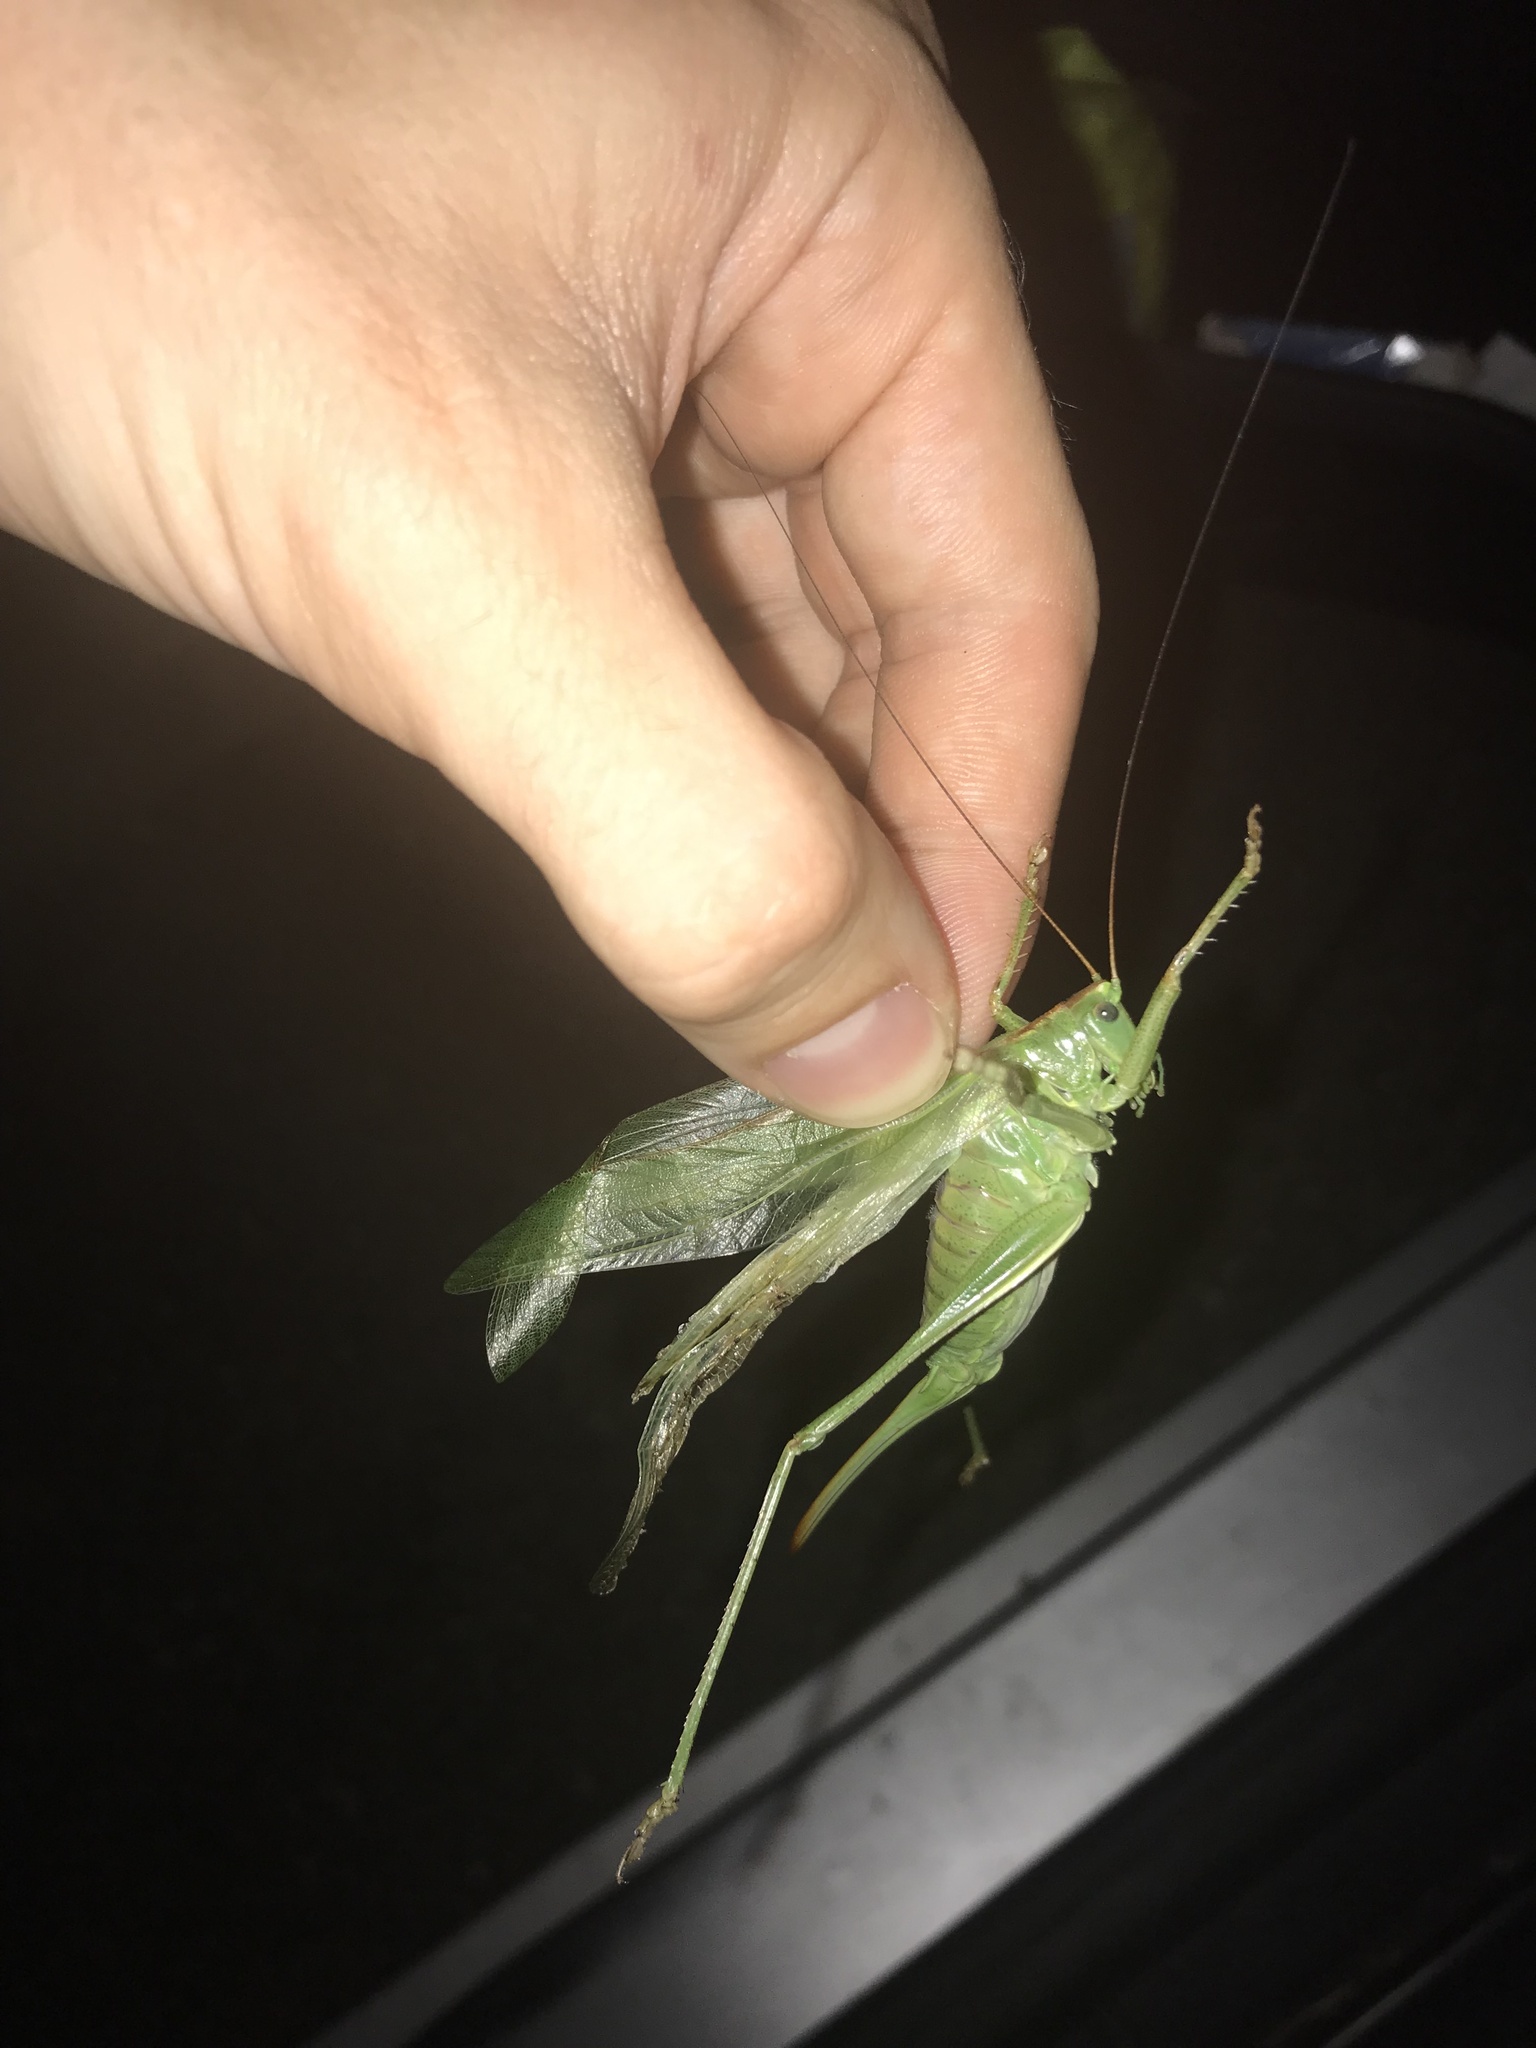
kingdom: Animalia
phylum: Arthropoda
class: Insecta
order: Orthoptera
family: Tettigoniidae
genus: Tettigonia
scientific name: Tettigonia viridissima
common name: Great green bush-cricket
